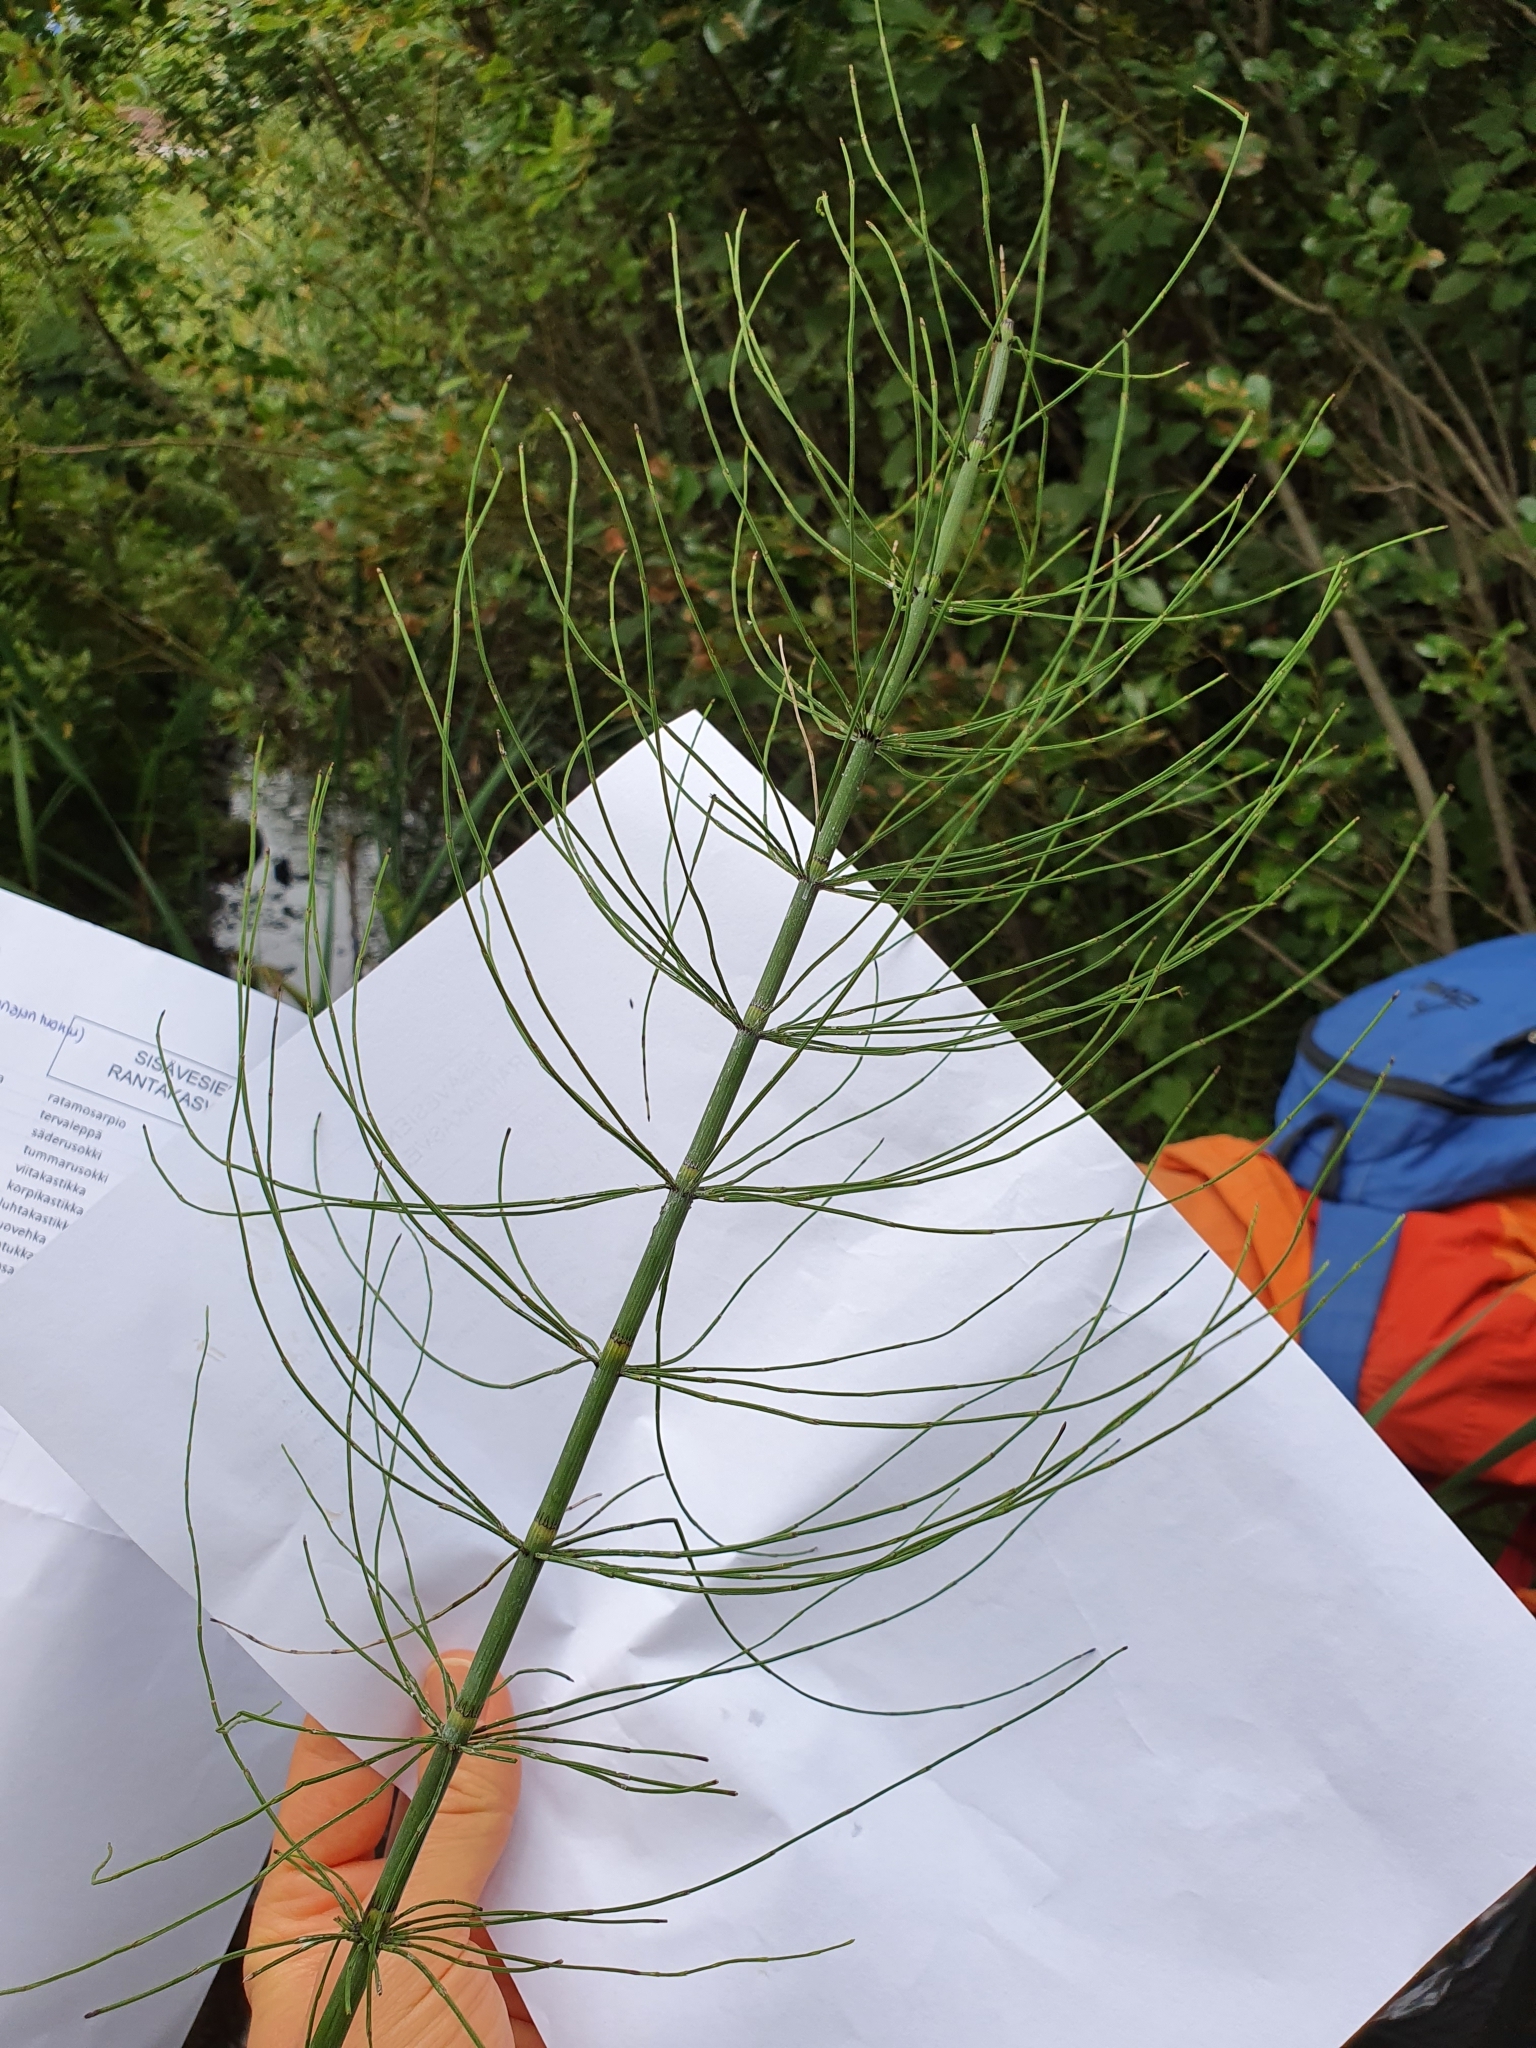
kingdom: Plantae
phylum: Tracheophyta
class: Polypodiopsida
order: Equisetales
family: Equisetaceae
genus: Equisetum
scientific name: Equisetum fluviatile
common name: Water horsetail
